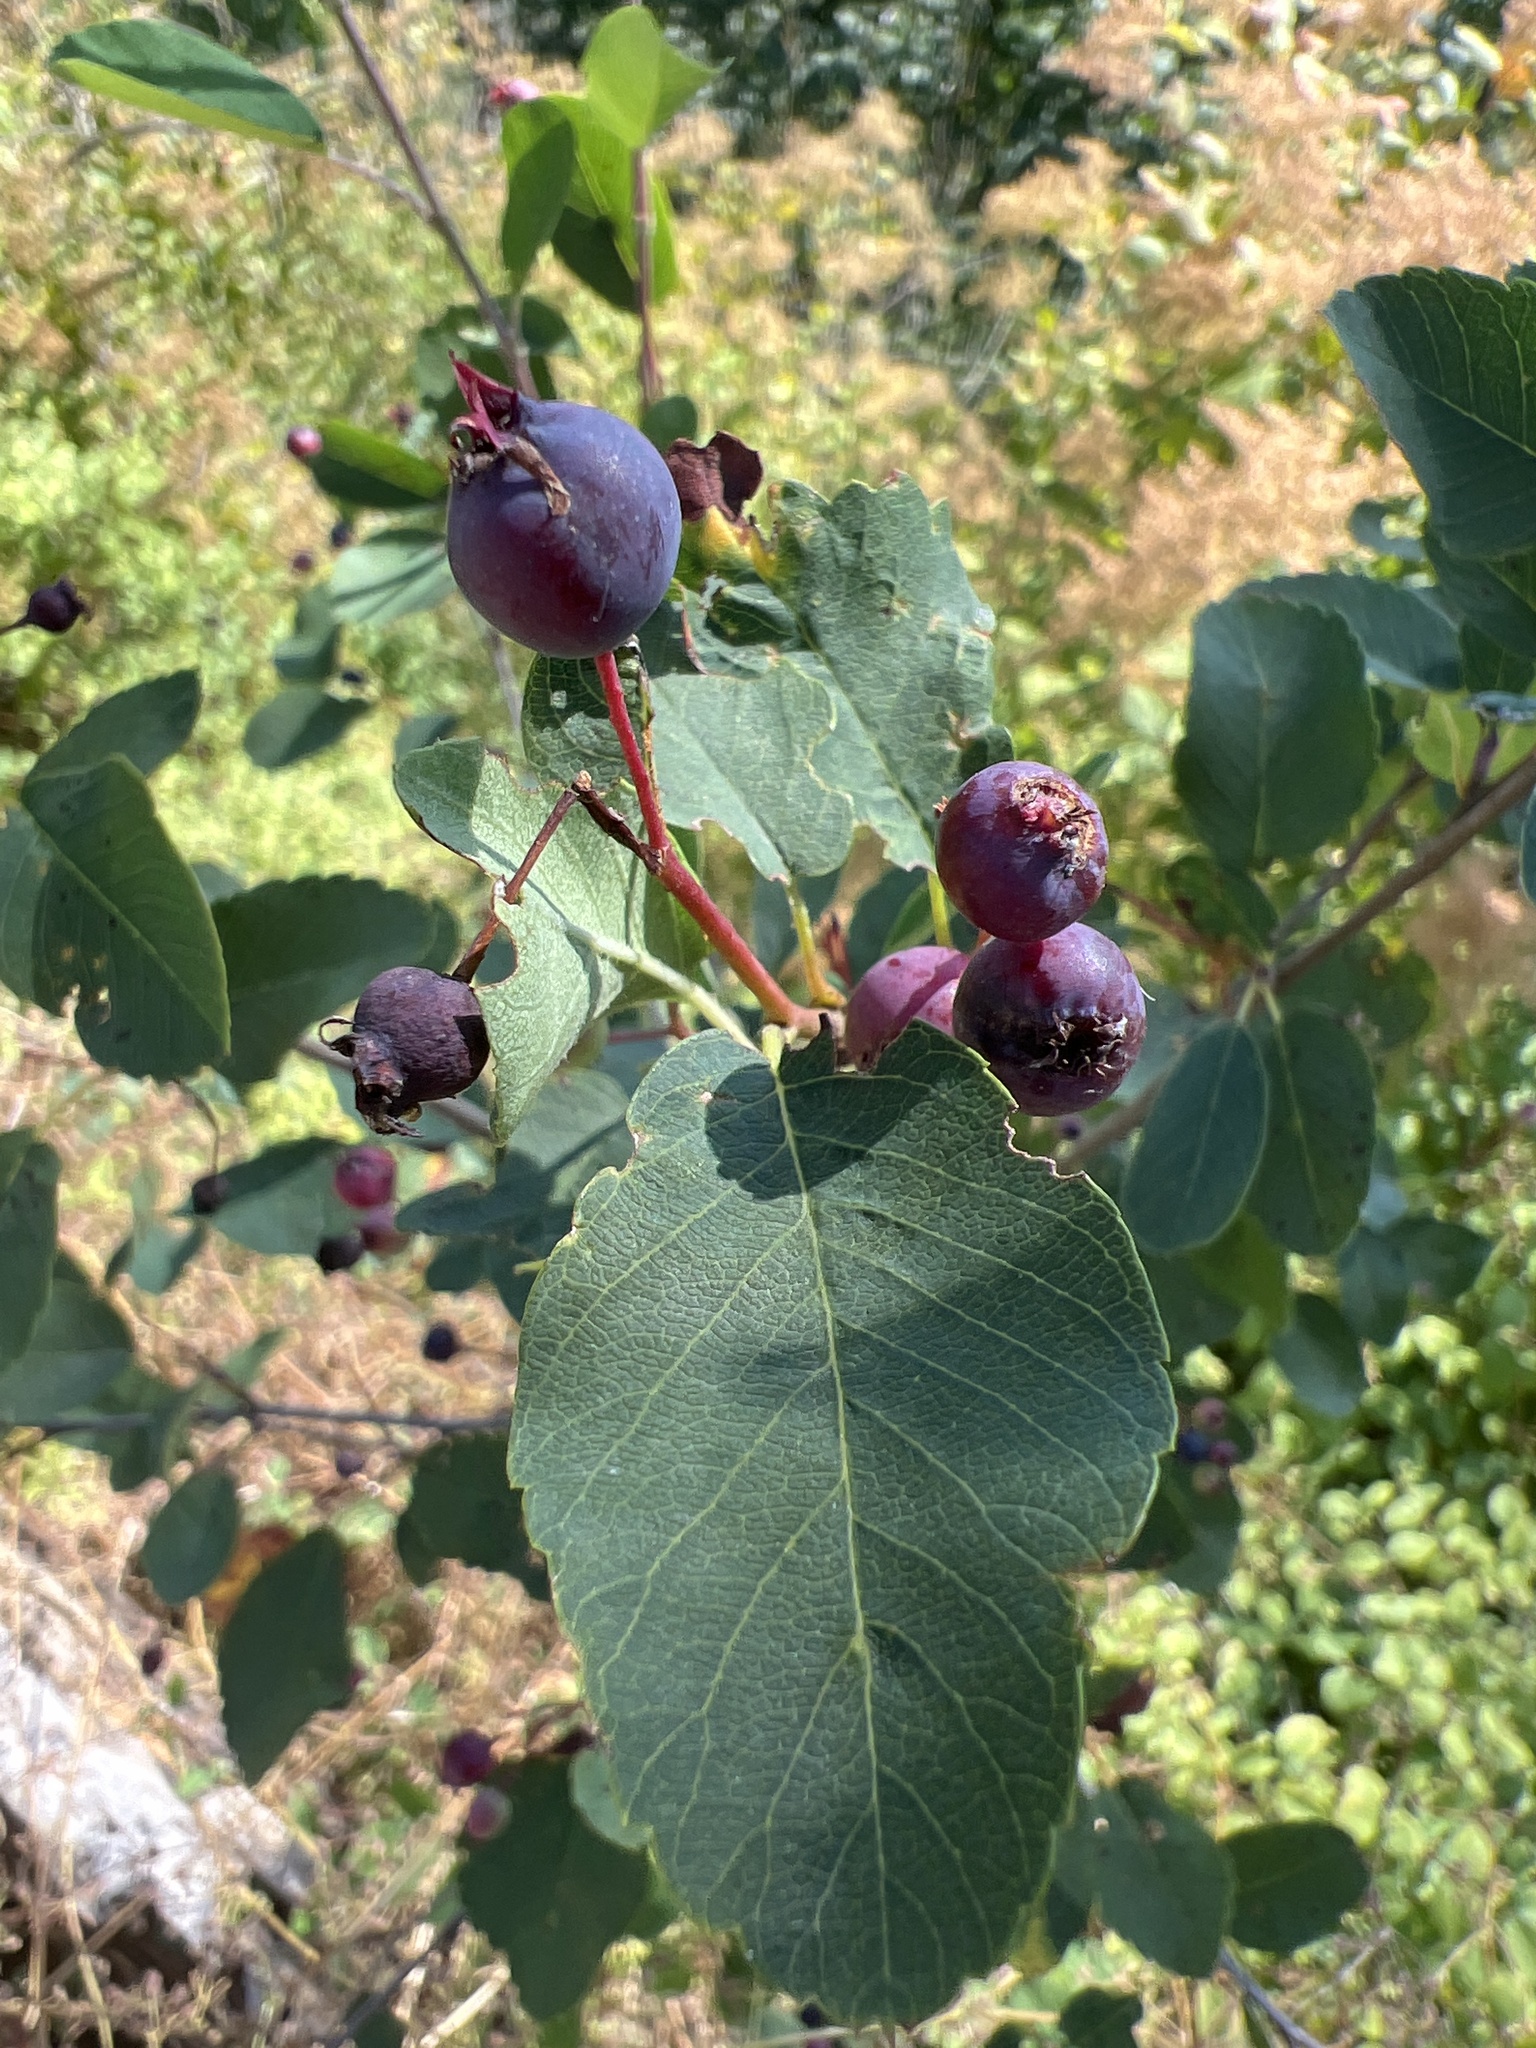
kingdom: Plantae
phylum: Tracheophyta
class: Magnoliopsida
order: Rosales
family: Rosaceae
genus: Amelanchier
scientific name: Amelanchier alnifolia
